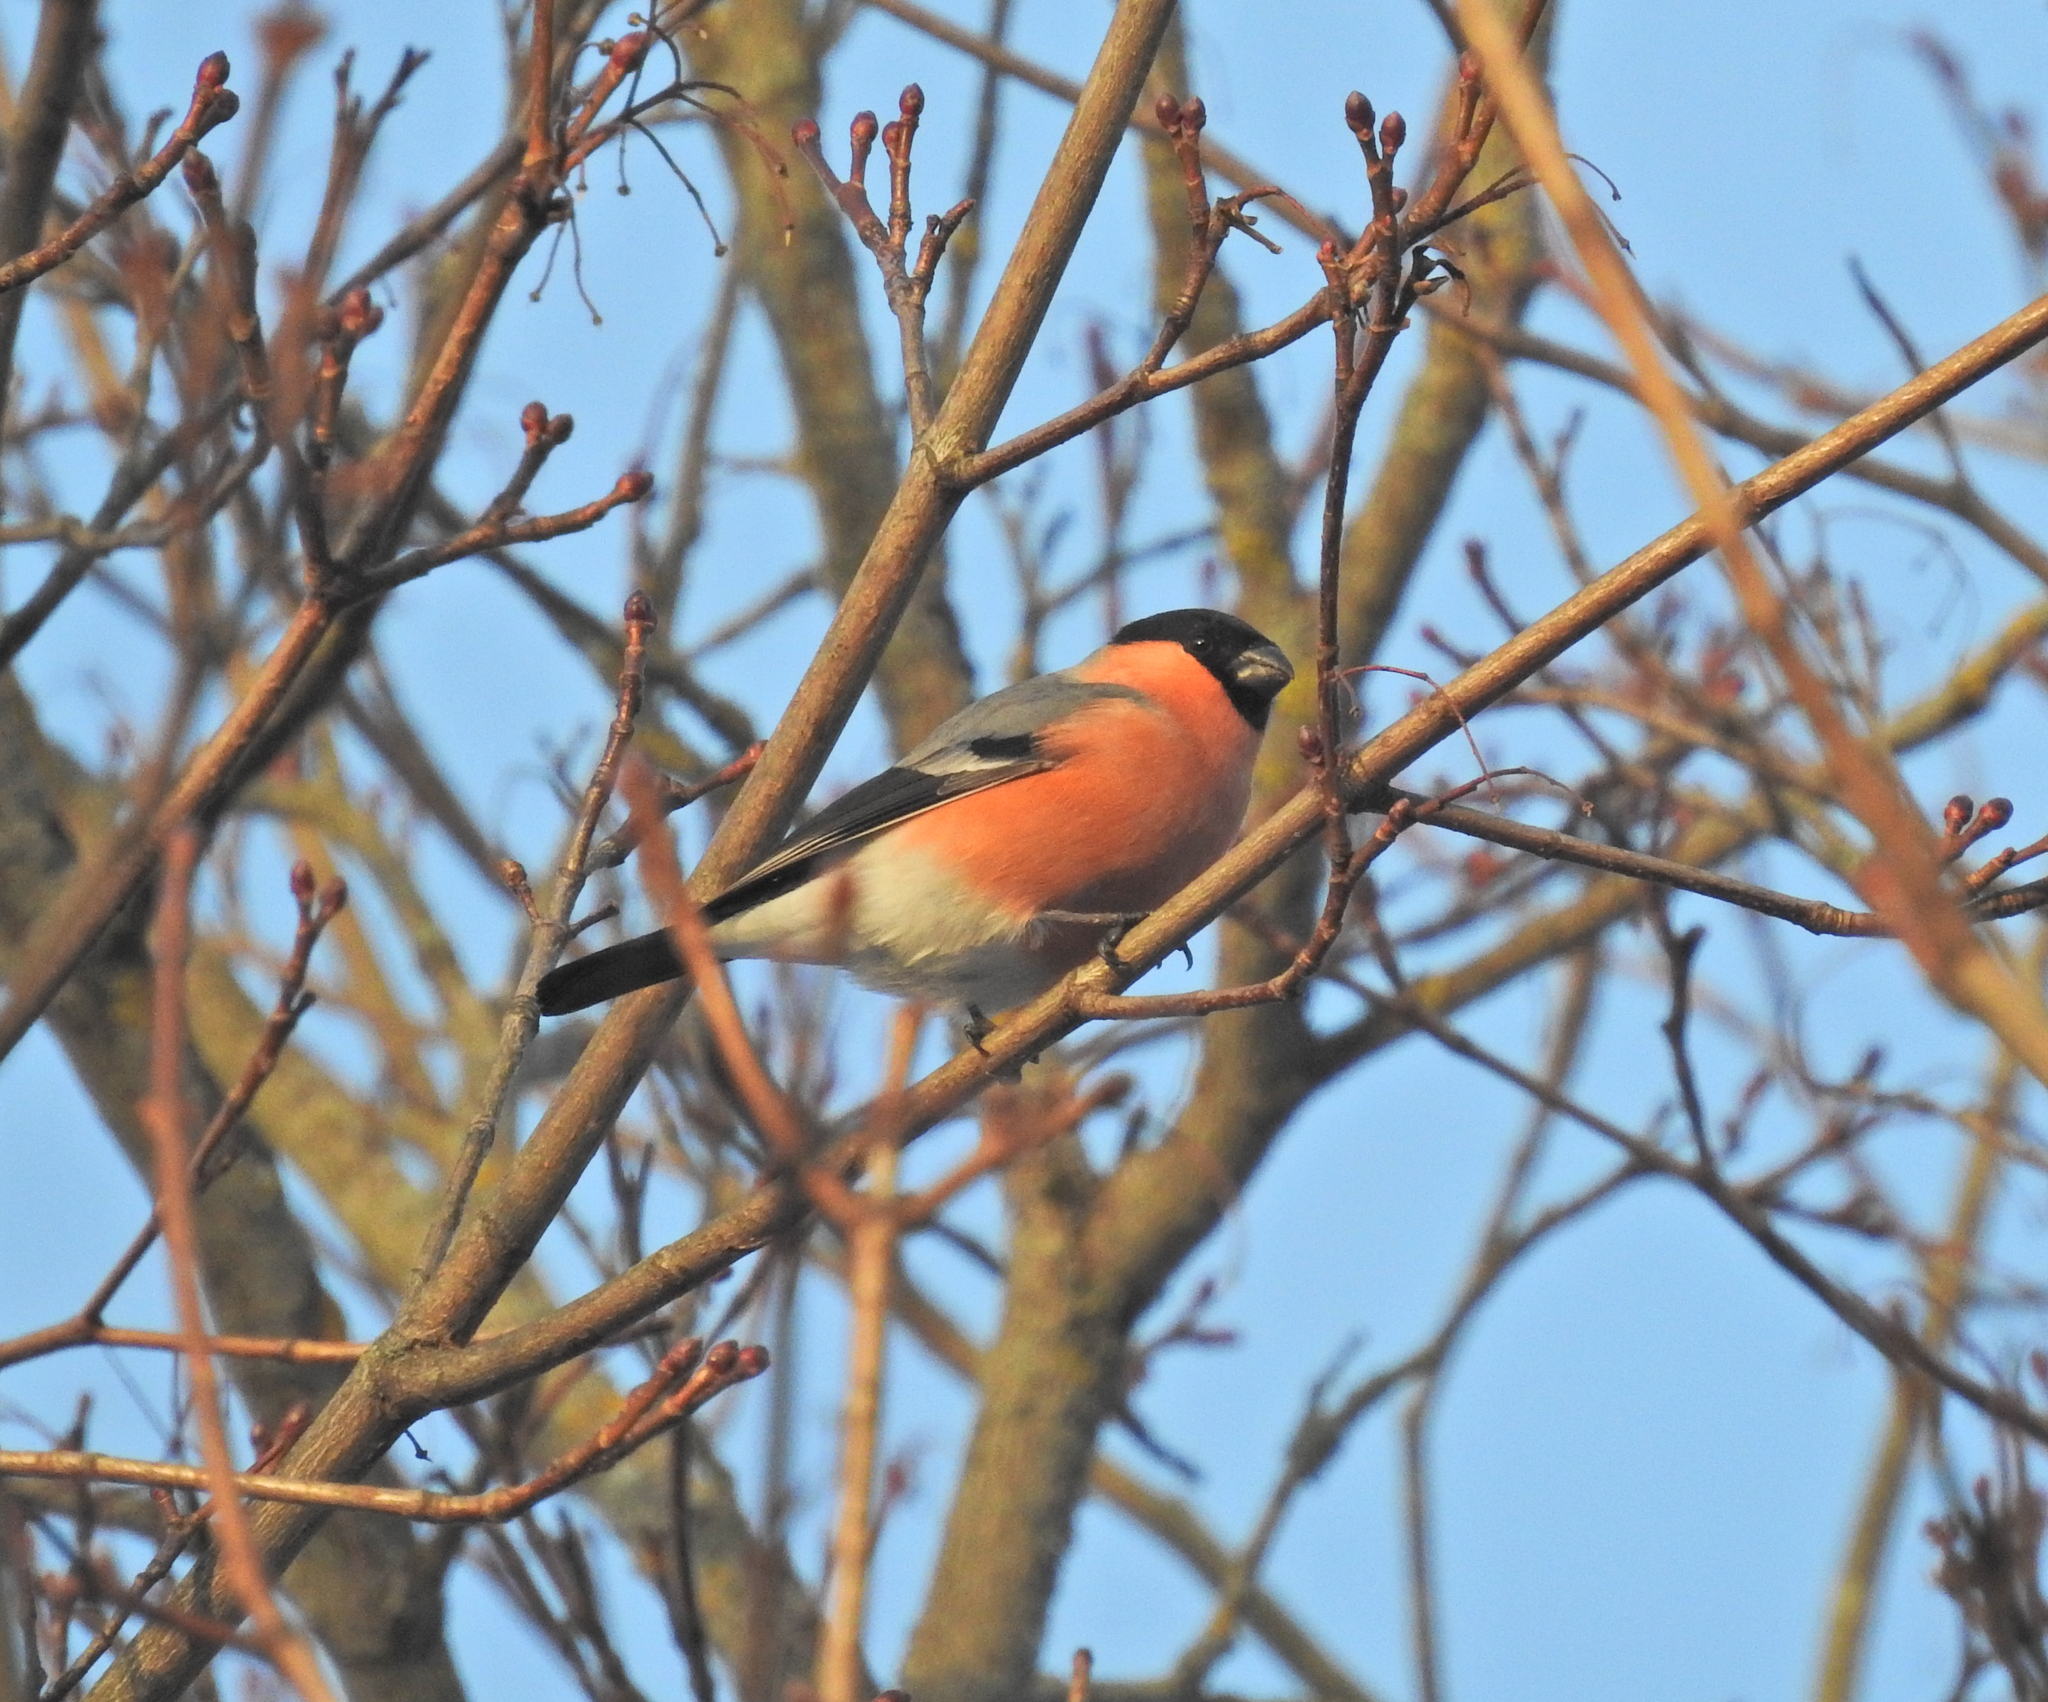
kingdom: Animalia
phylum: Chordata
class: Aves
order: Passeriformes
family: Fringillidae
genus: Pyrrhula
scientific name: Pyrrhula pyrrhula
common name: Eurasian bullfinch
